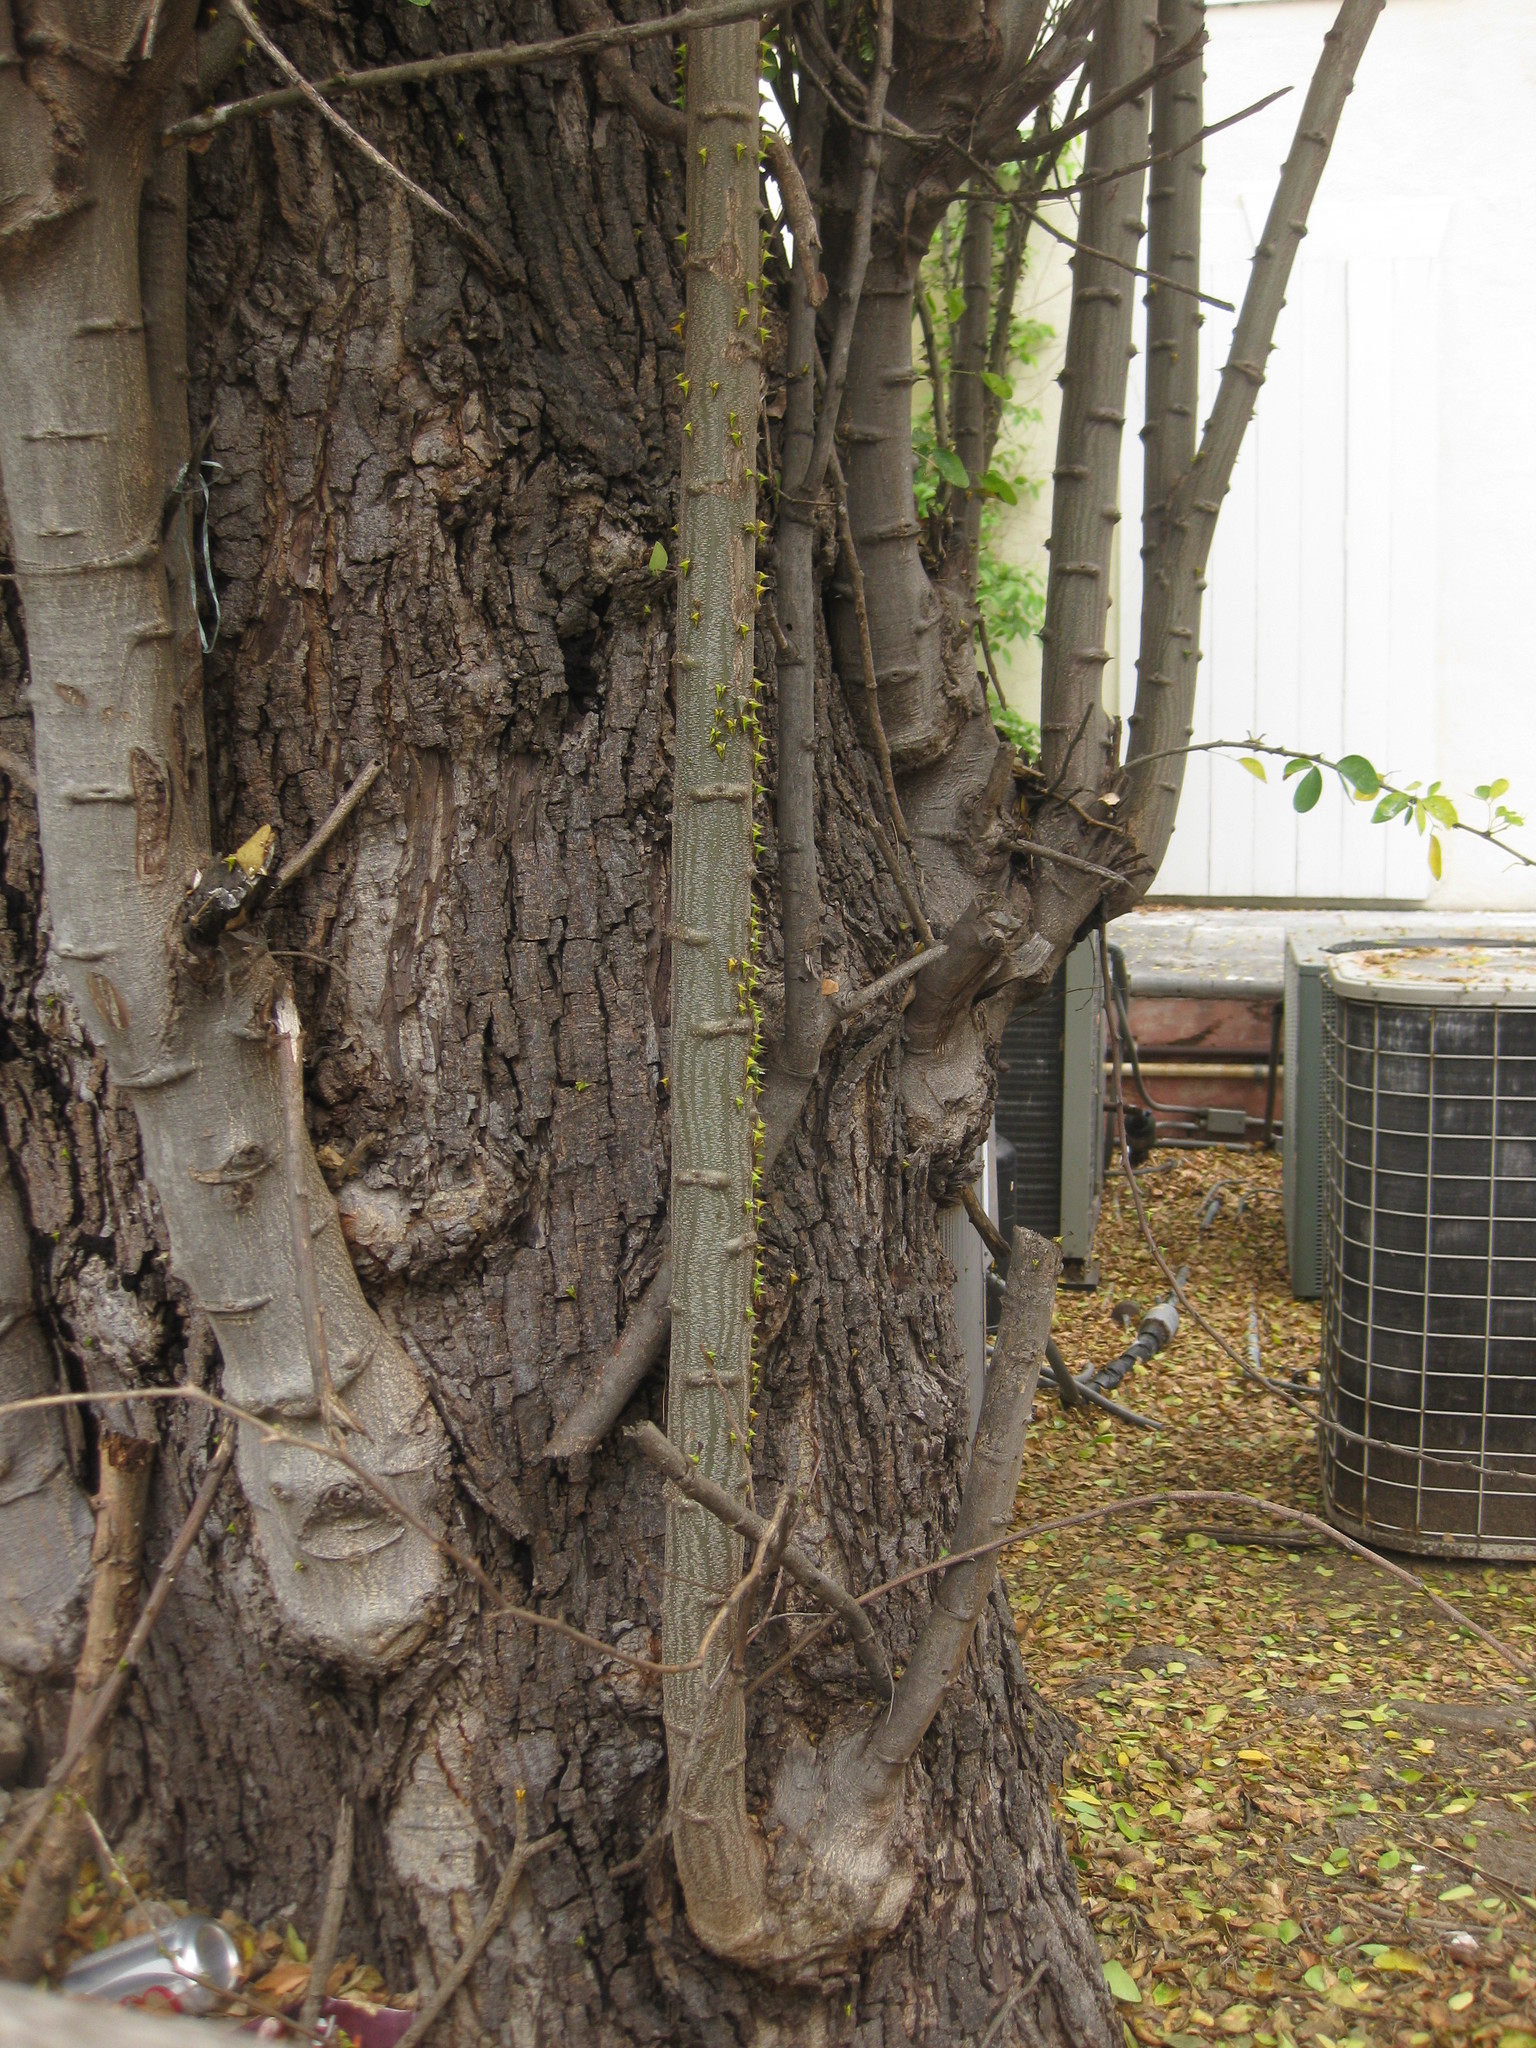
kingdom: Animalia
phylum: Arthropoda
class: Insecta
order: Hemiptera
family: Membracidae
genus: Umbonia
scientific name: Umbonia crassicornis
